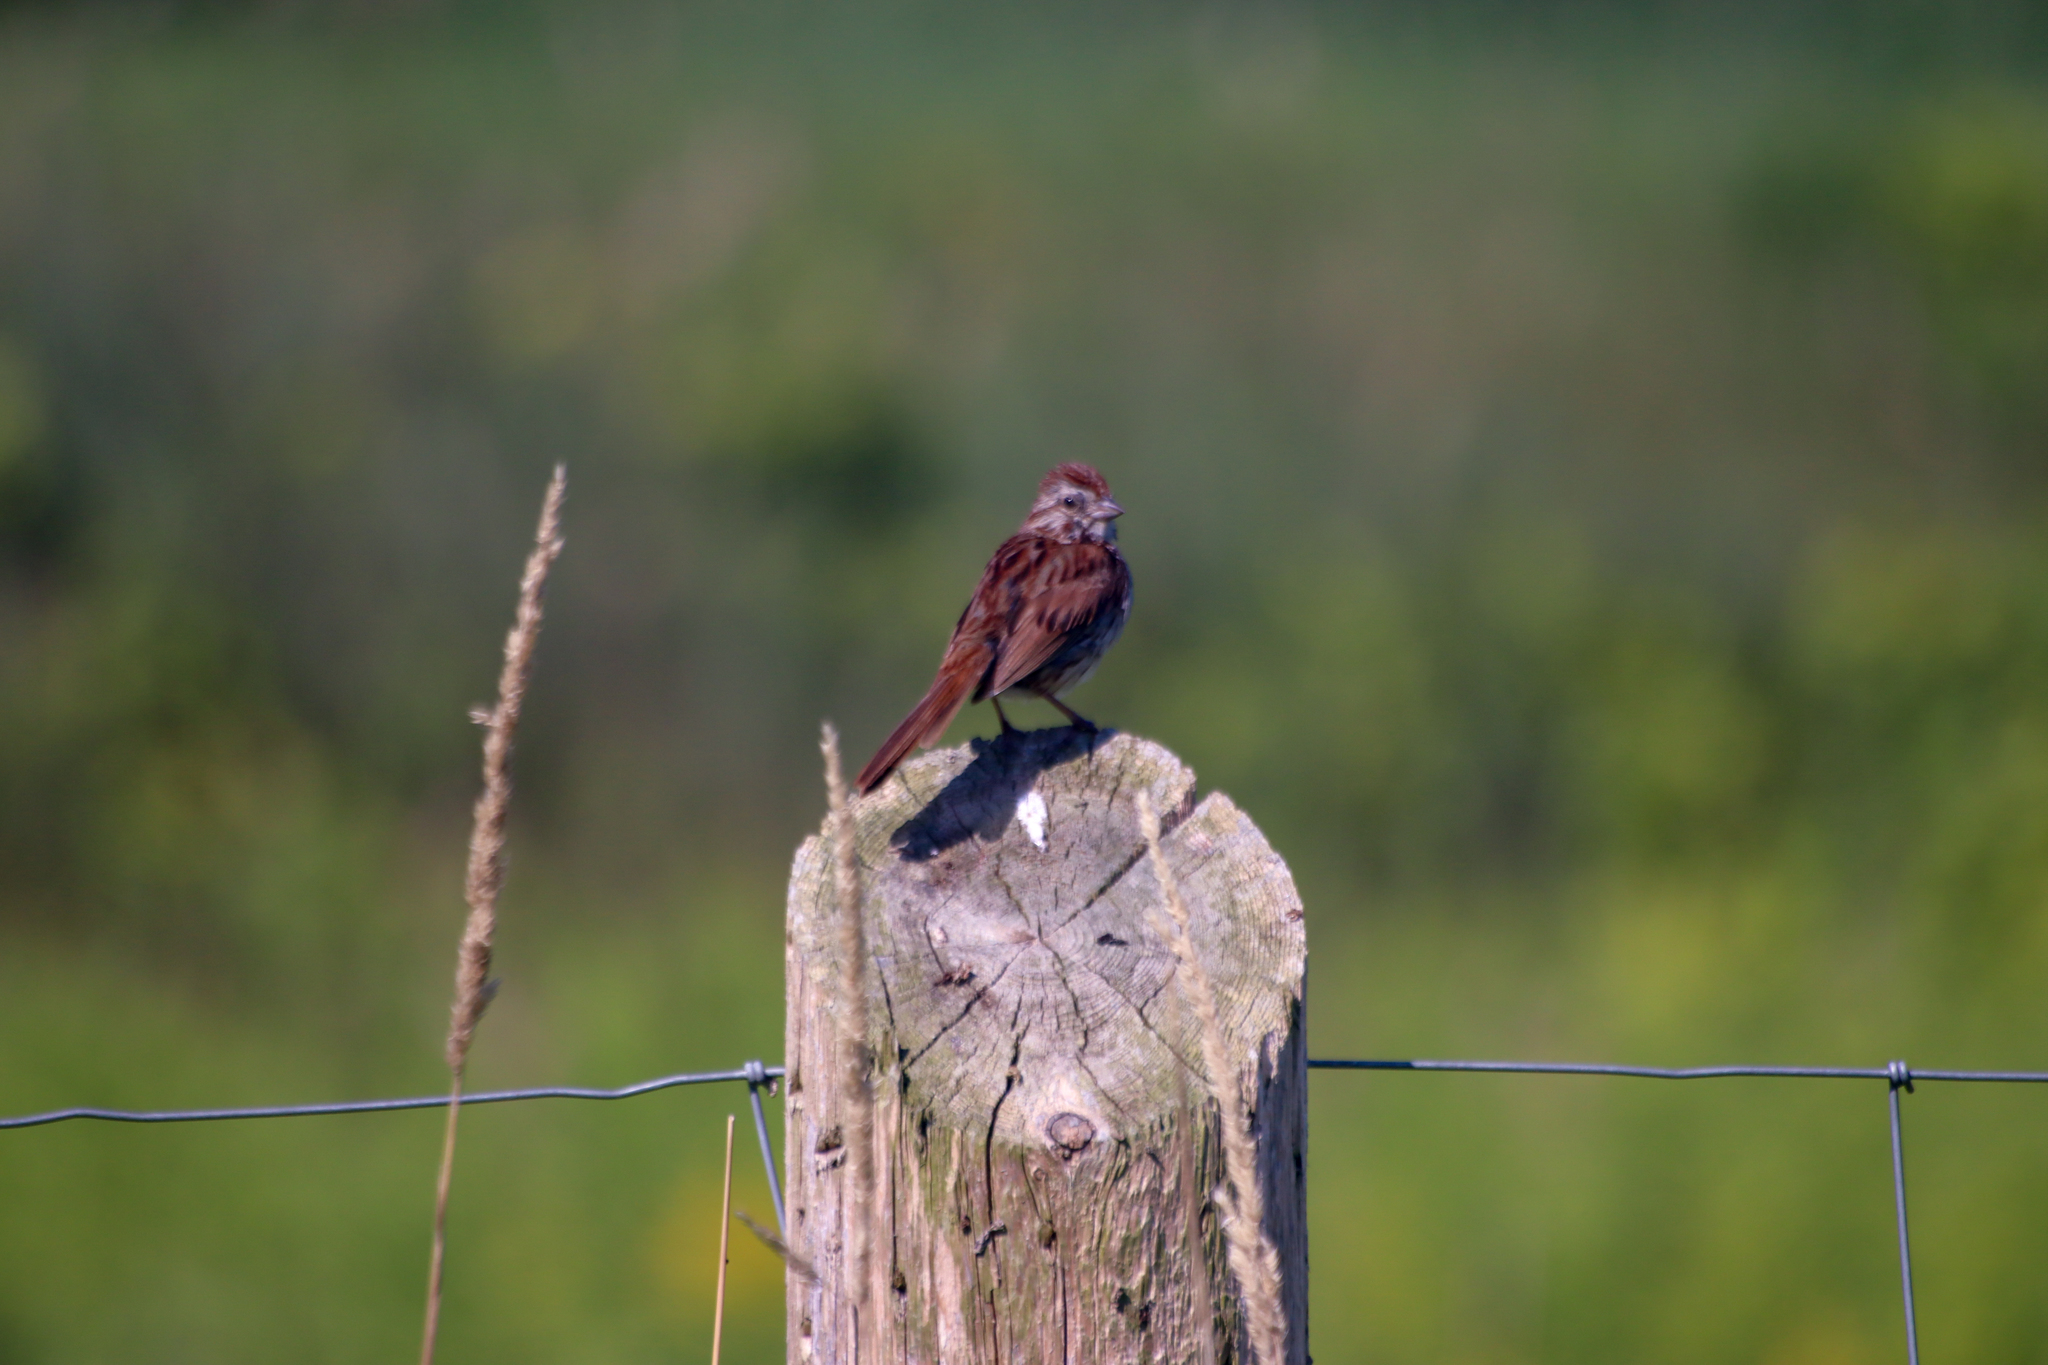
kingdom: Animalia
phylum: Chordata
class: Aves
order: Passeriformes
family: Passerellidae
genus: Melospiza
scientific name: Melospiza melodia
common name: Song sparrow
